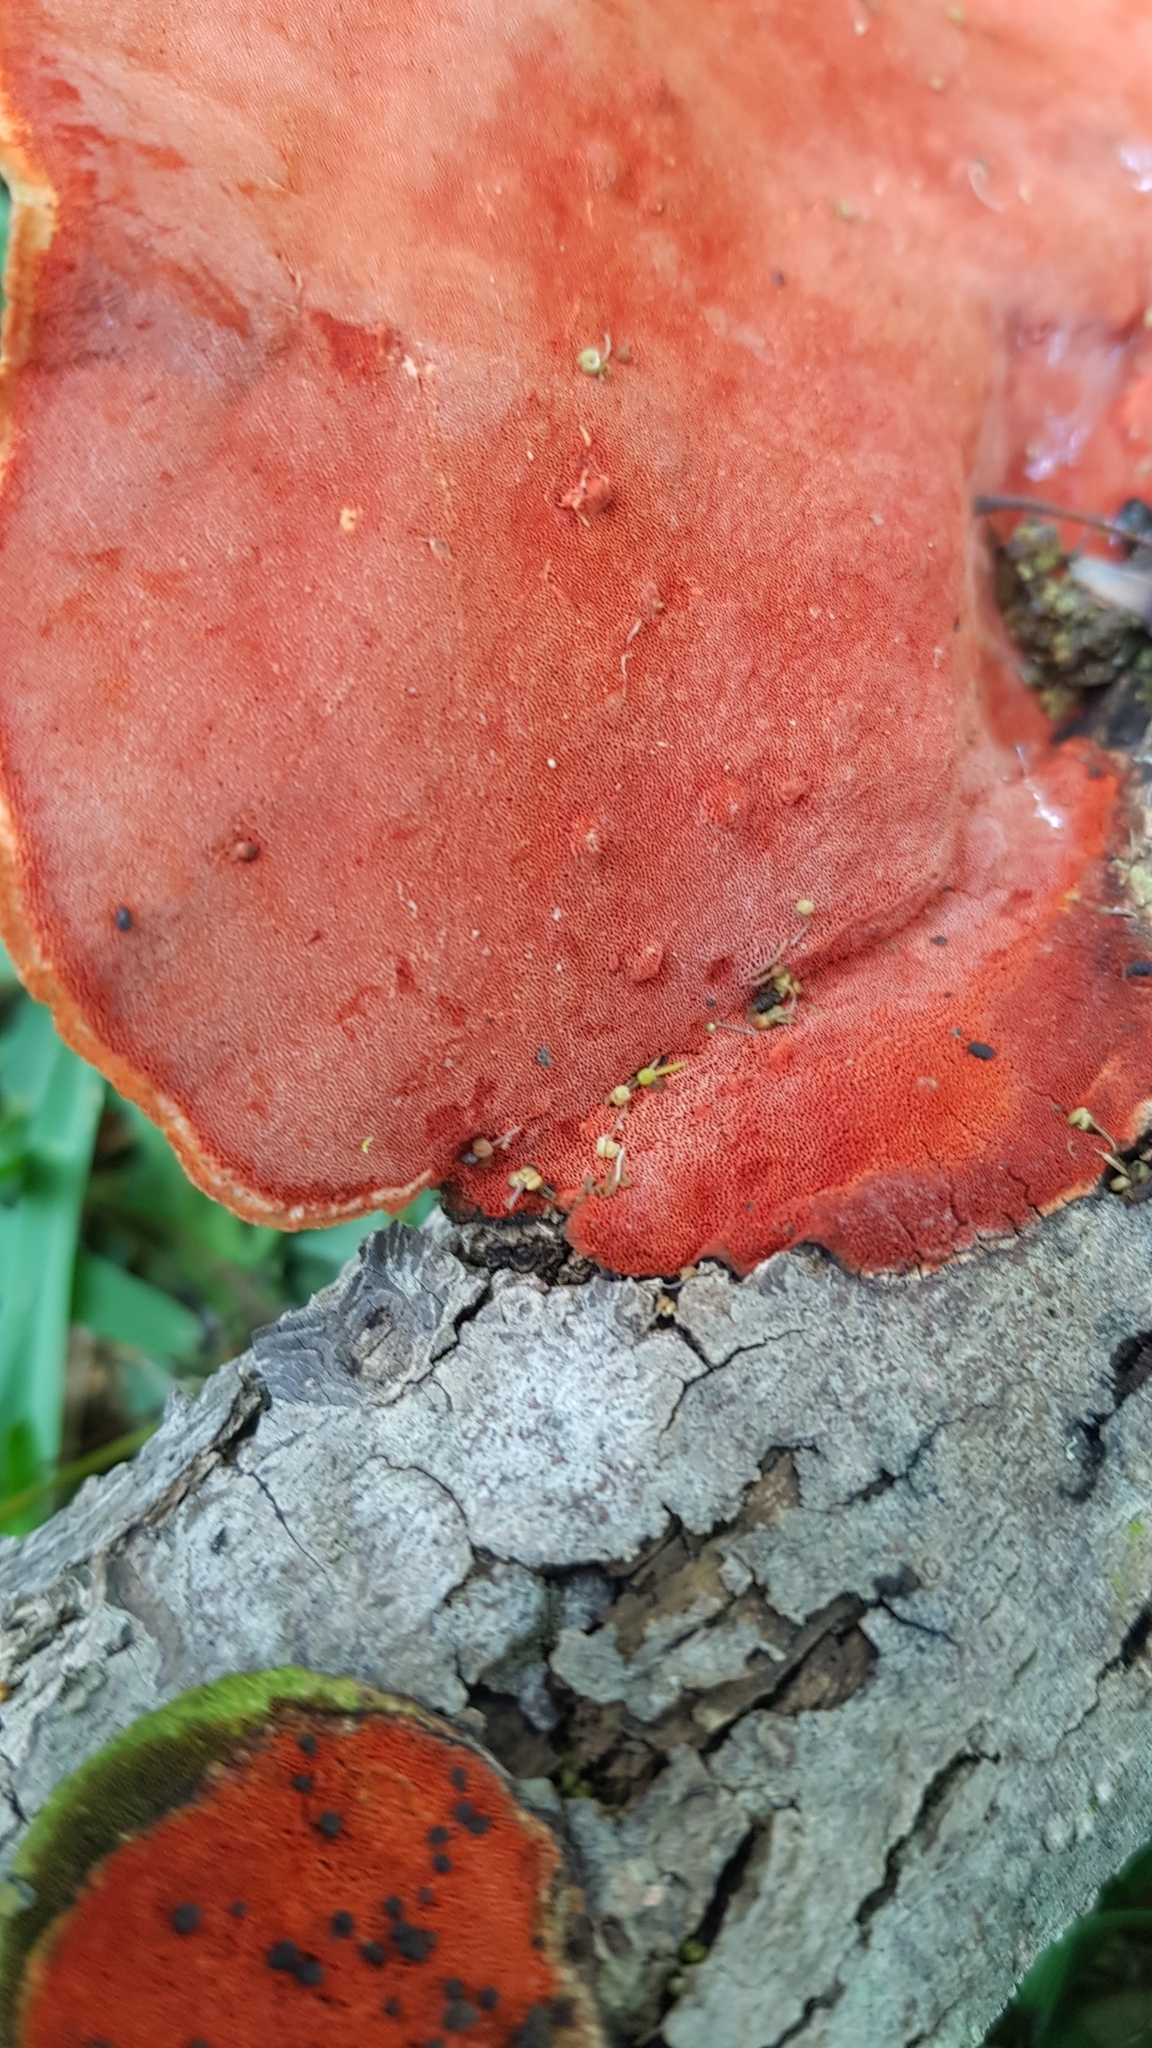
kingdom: Fungi
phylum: Basidiomycota
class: Agaricomycetes
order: Polyporales
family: Polyporaceae
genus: Trametes
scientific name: Trametes coccinea
